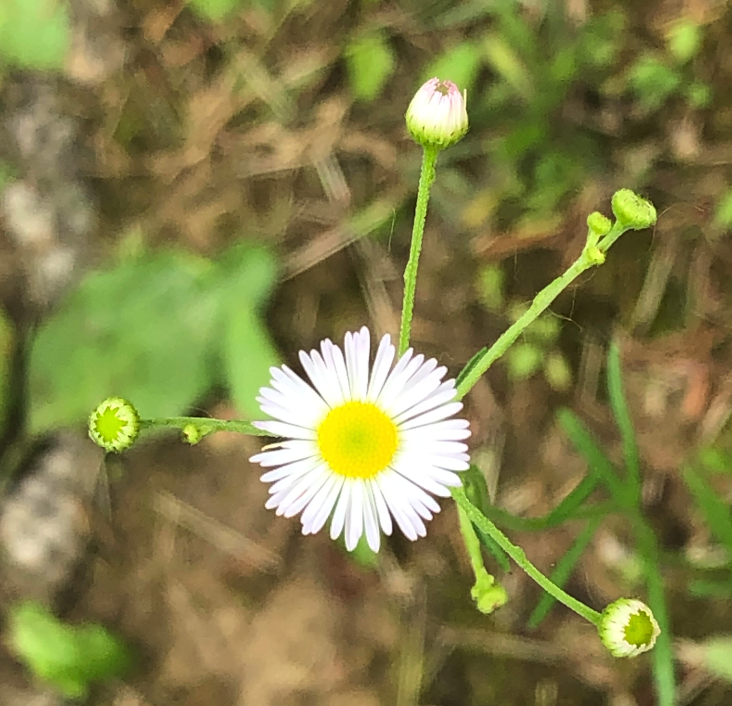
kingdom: Plantae
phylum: Tracheophyta
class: Magnoliopsida
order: Asterales
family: Asteraceae
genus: Erigeron
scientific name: Erigeron strigosus
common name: Common eastern fleabane
